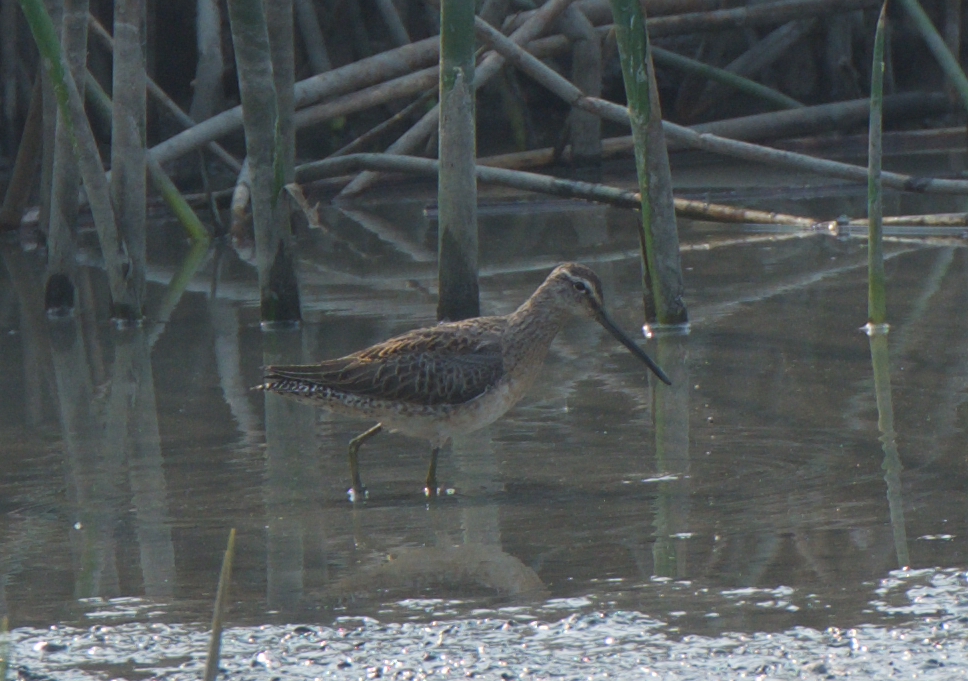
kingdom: Animalia
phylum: Chordata
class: Aves
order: Charadriiformes
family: Scolopacidae
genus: Limnodromus
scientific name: Limnodromus scolopaceus
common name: Long-billed dowitcher
